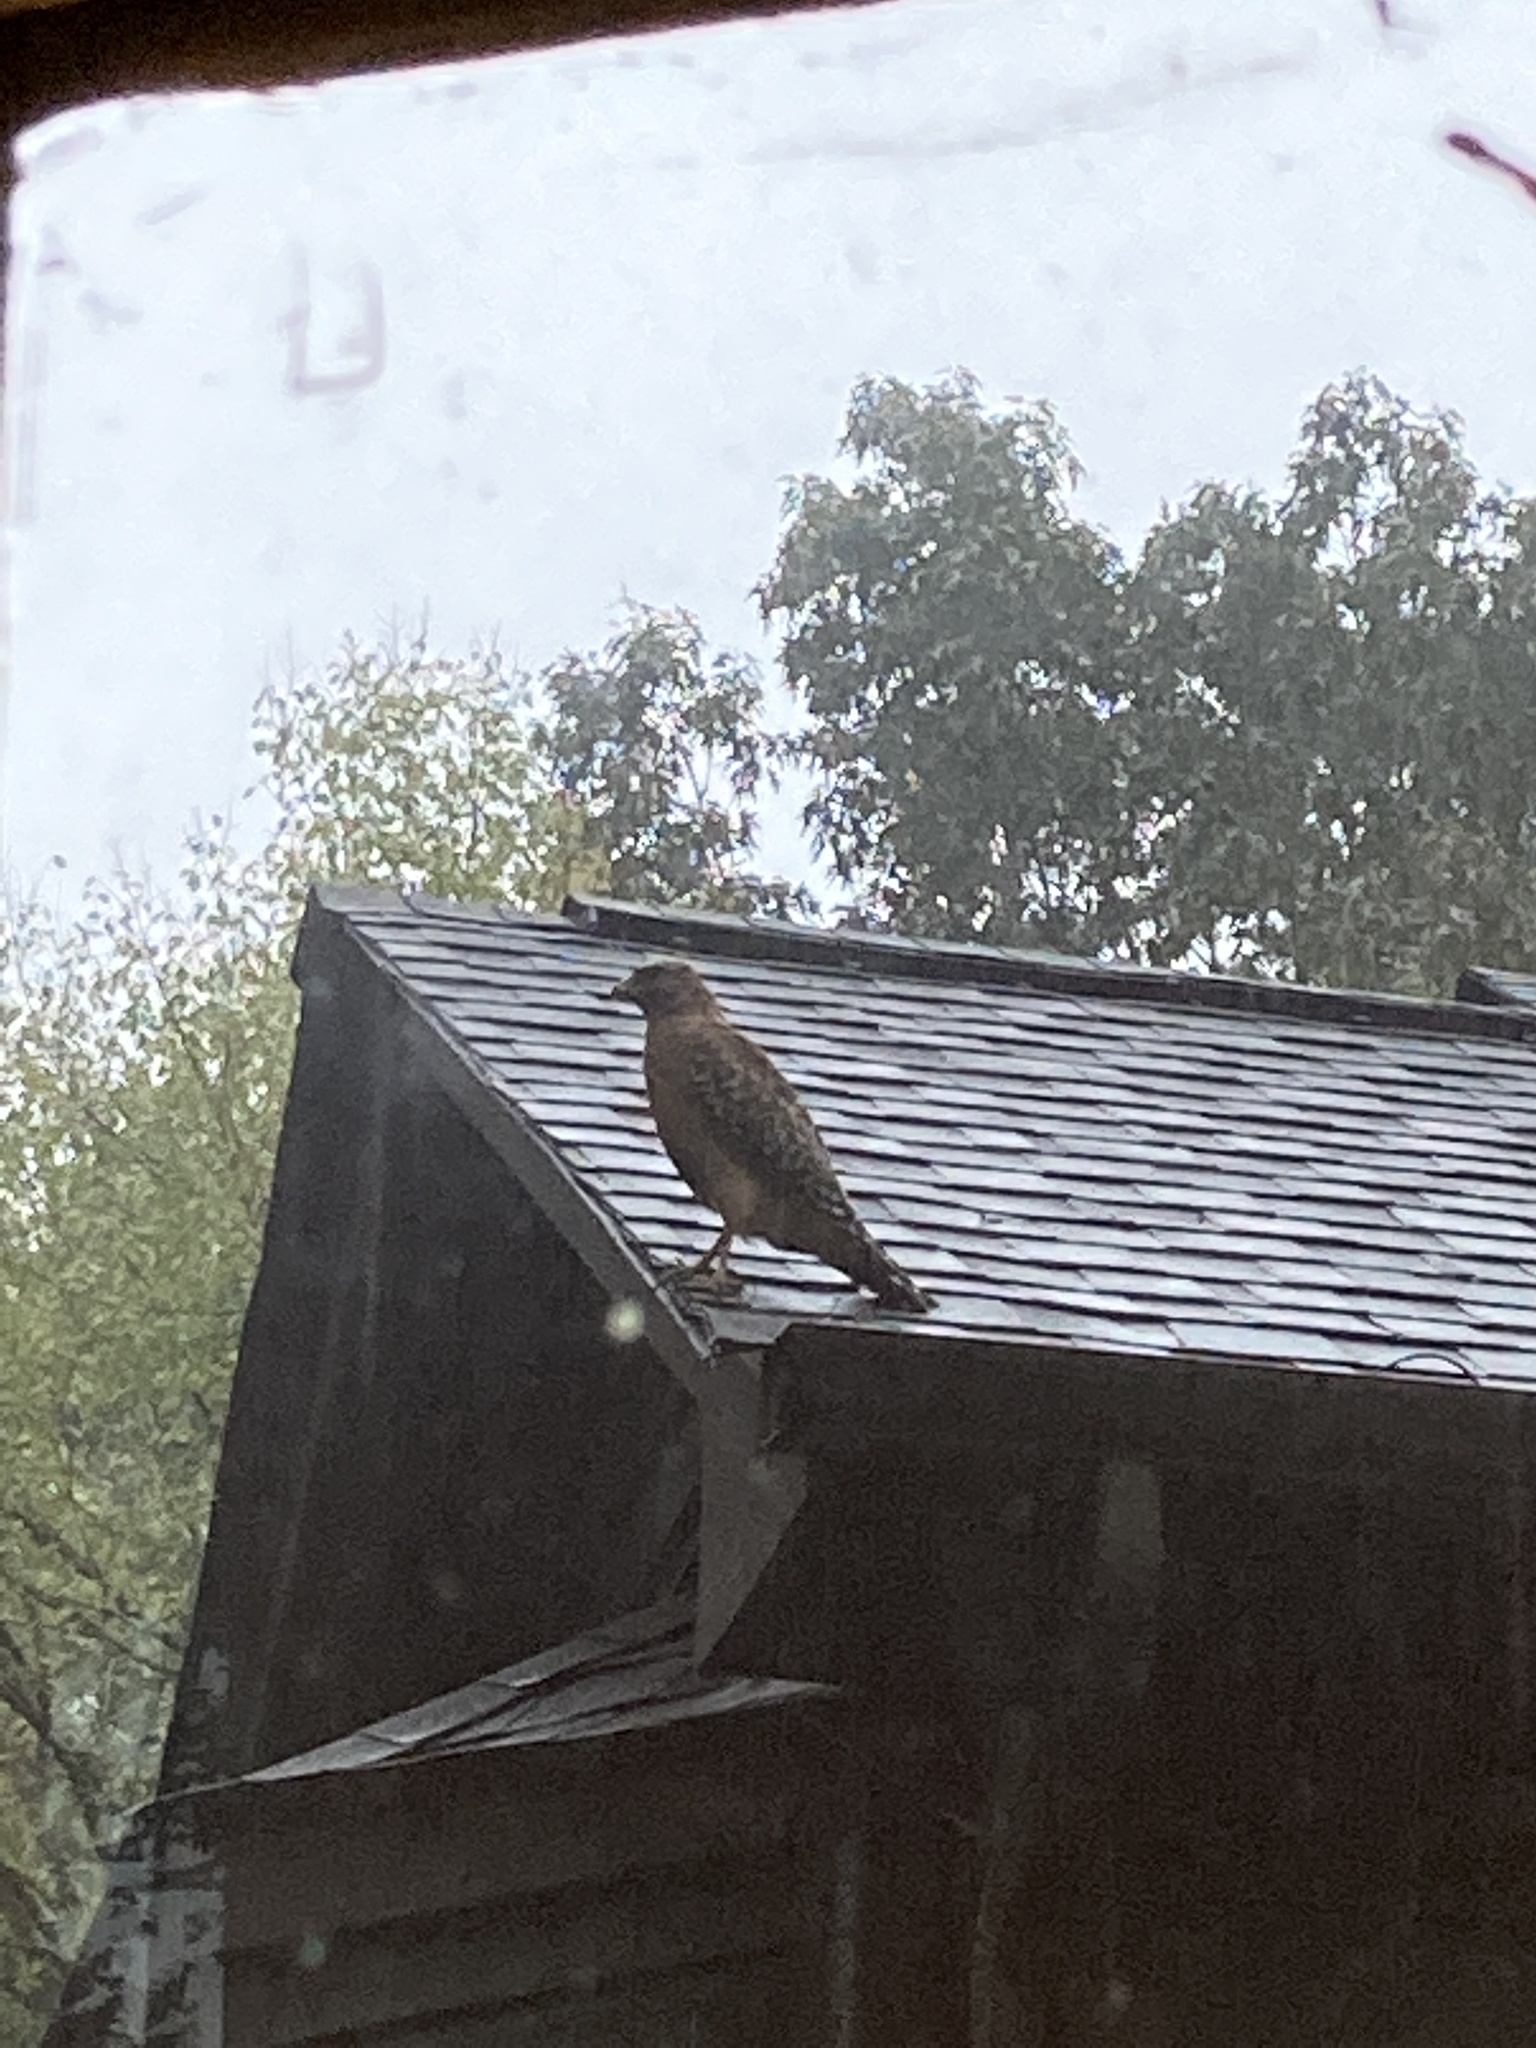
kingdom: Animalia
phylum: Chordata
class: Aves
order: Accipitriformes
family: Accipitridae
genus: Buteo
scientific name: Buteo lineatus
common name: Red-shouldered hawk
